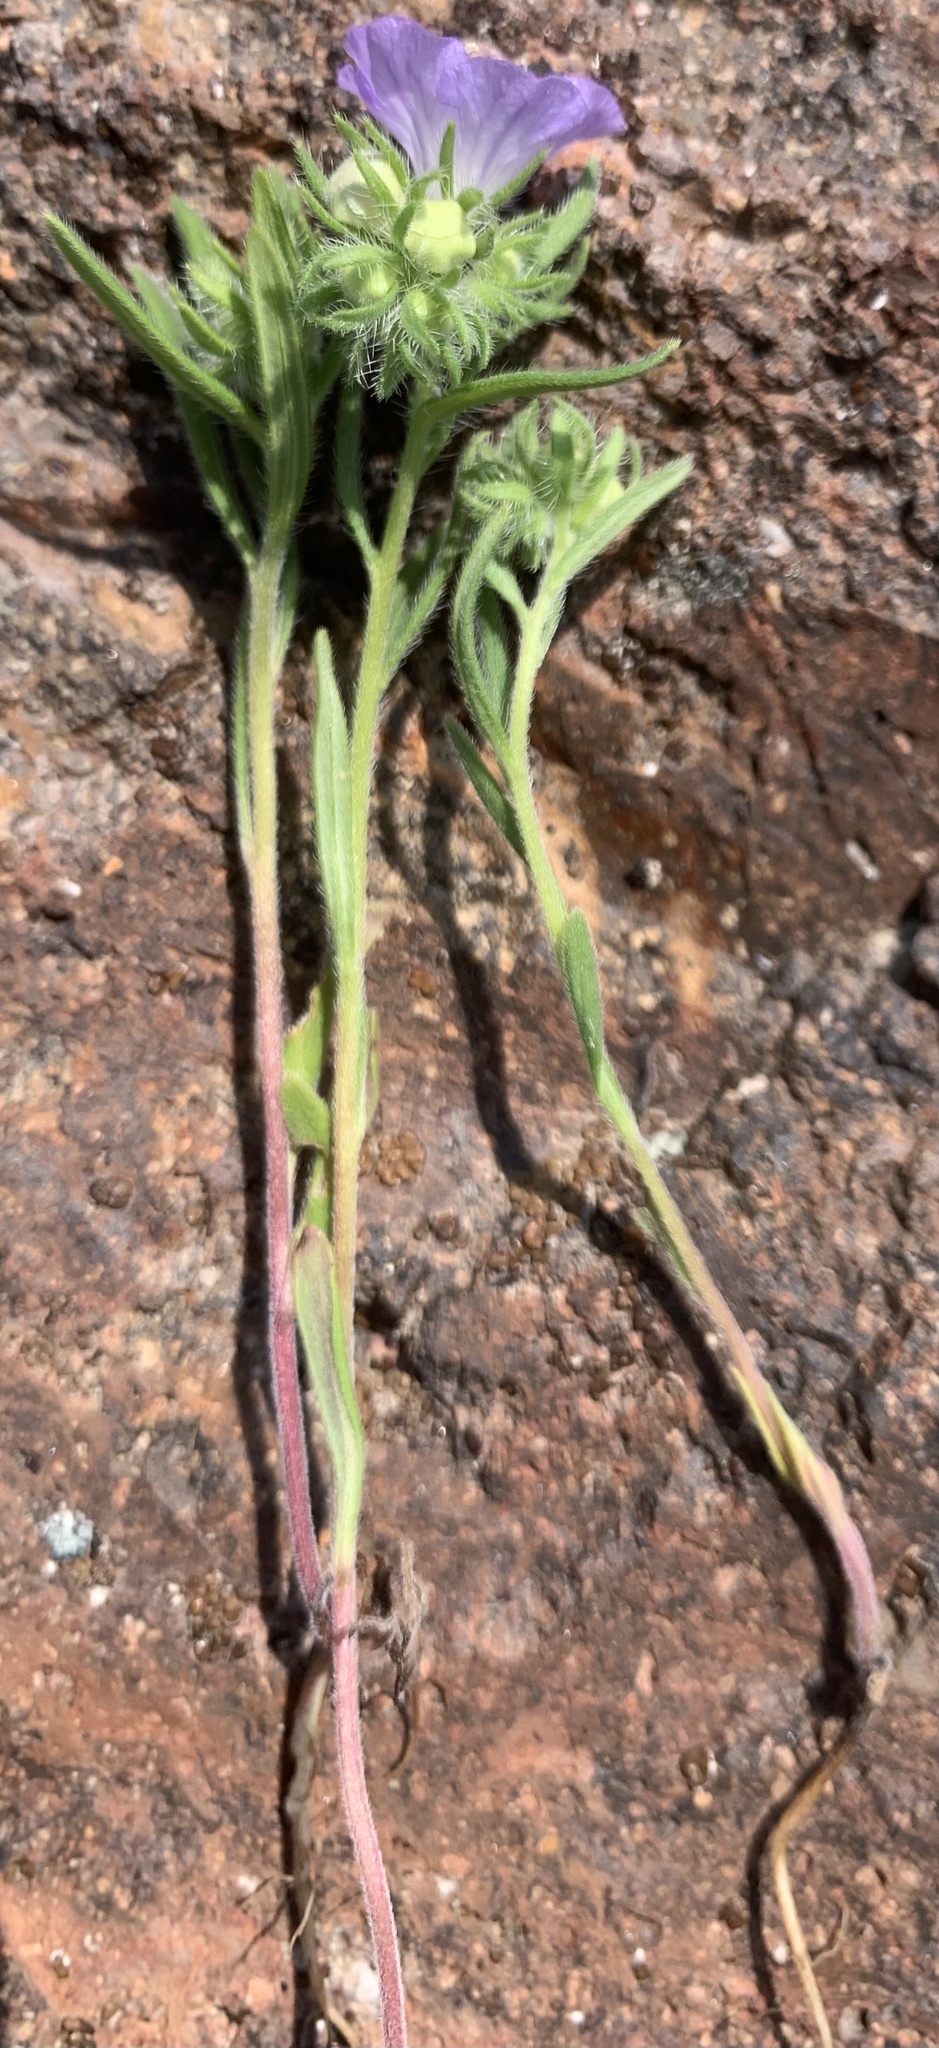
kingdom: Plantae
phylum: Tracheophyta
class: Magnoliopsida
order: Boraginales
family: Hydrophyllaceae
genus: Phacelia
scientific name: Phacelia linearis
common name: Linear-leaved phacelia
